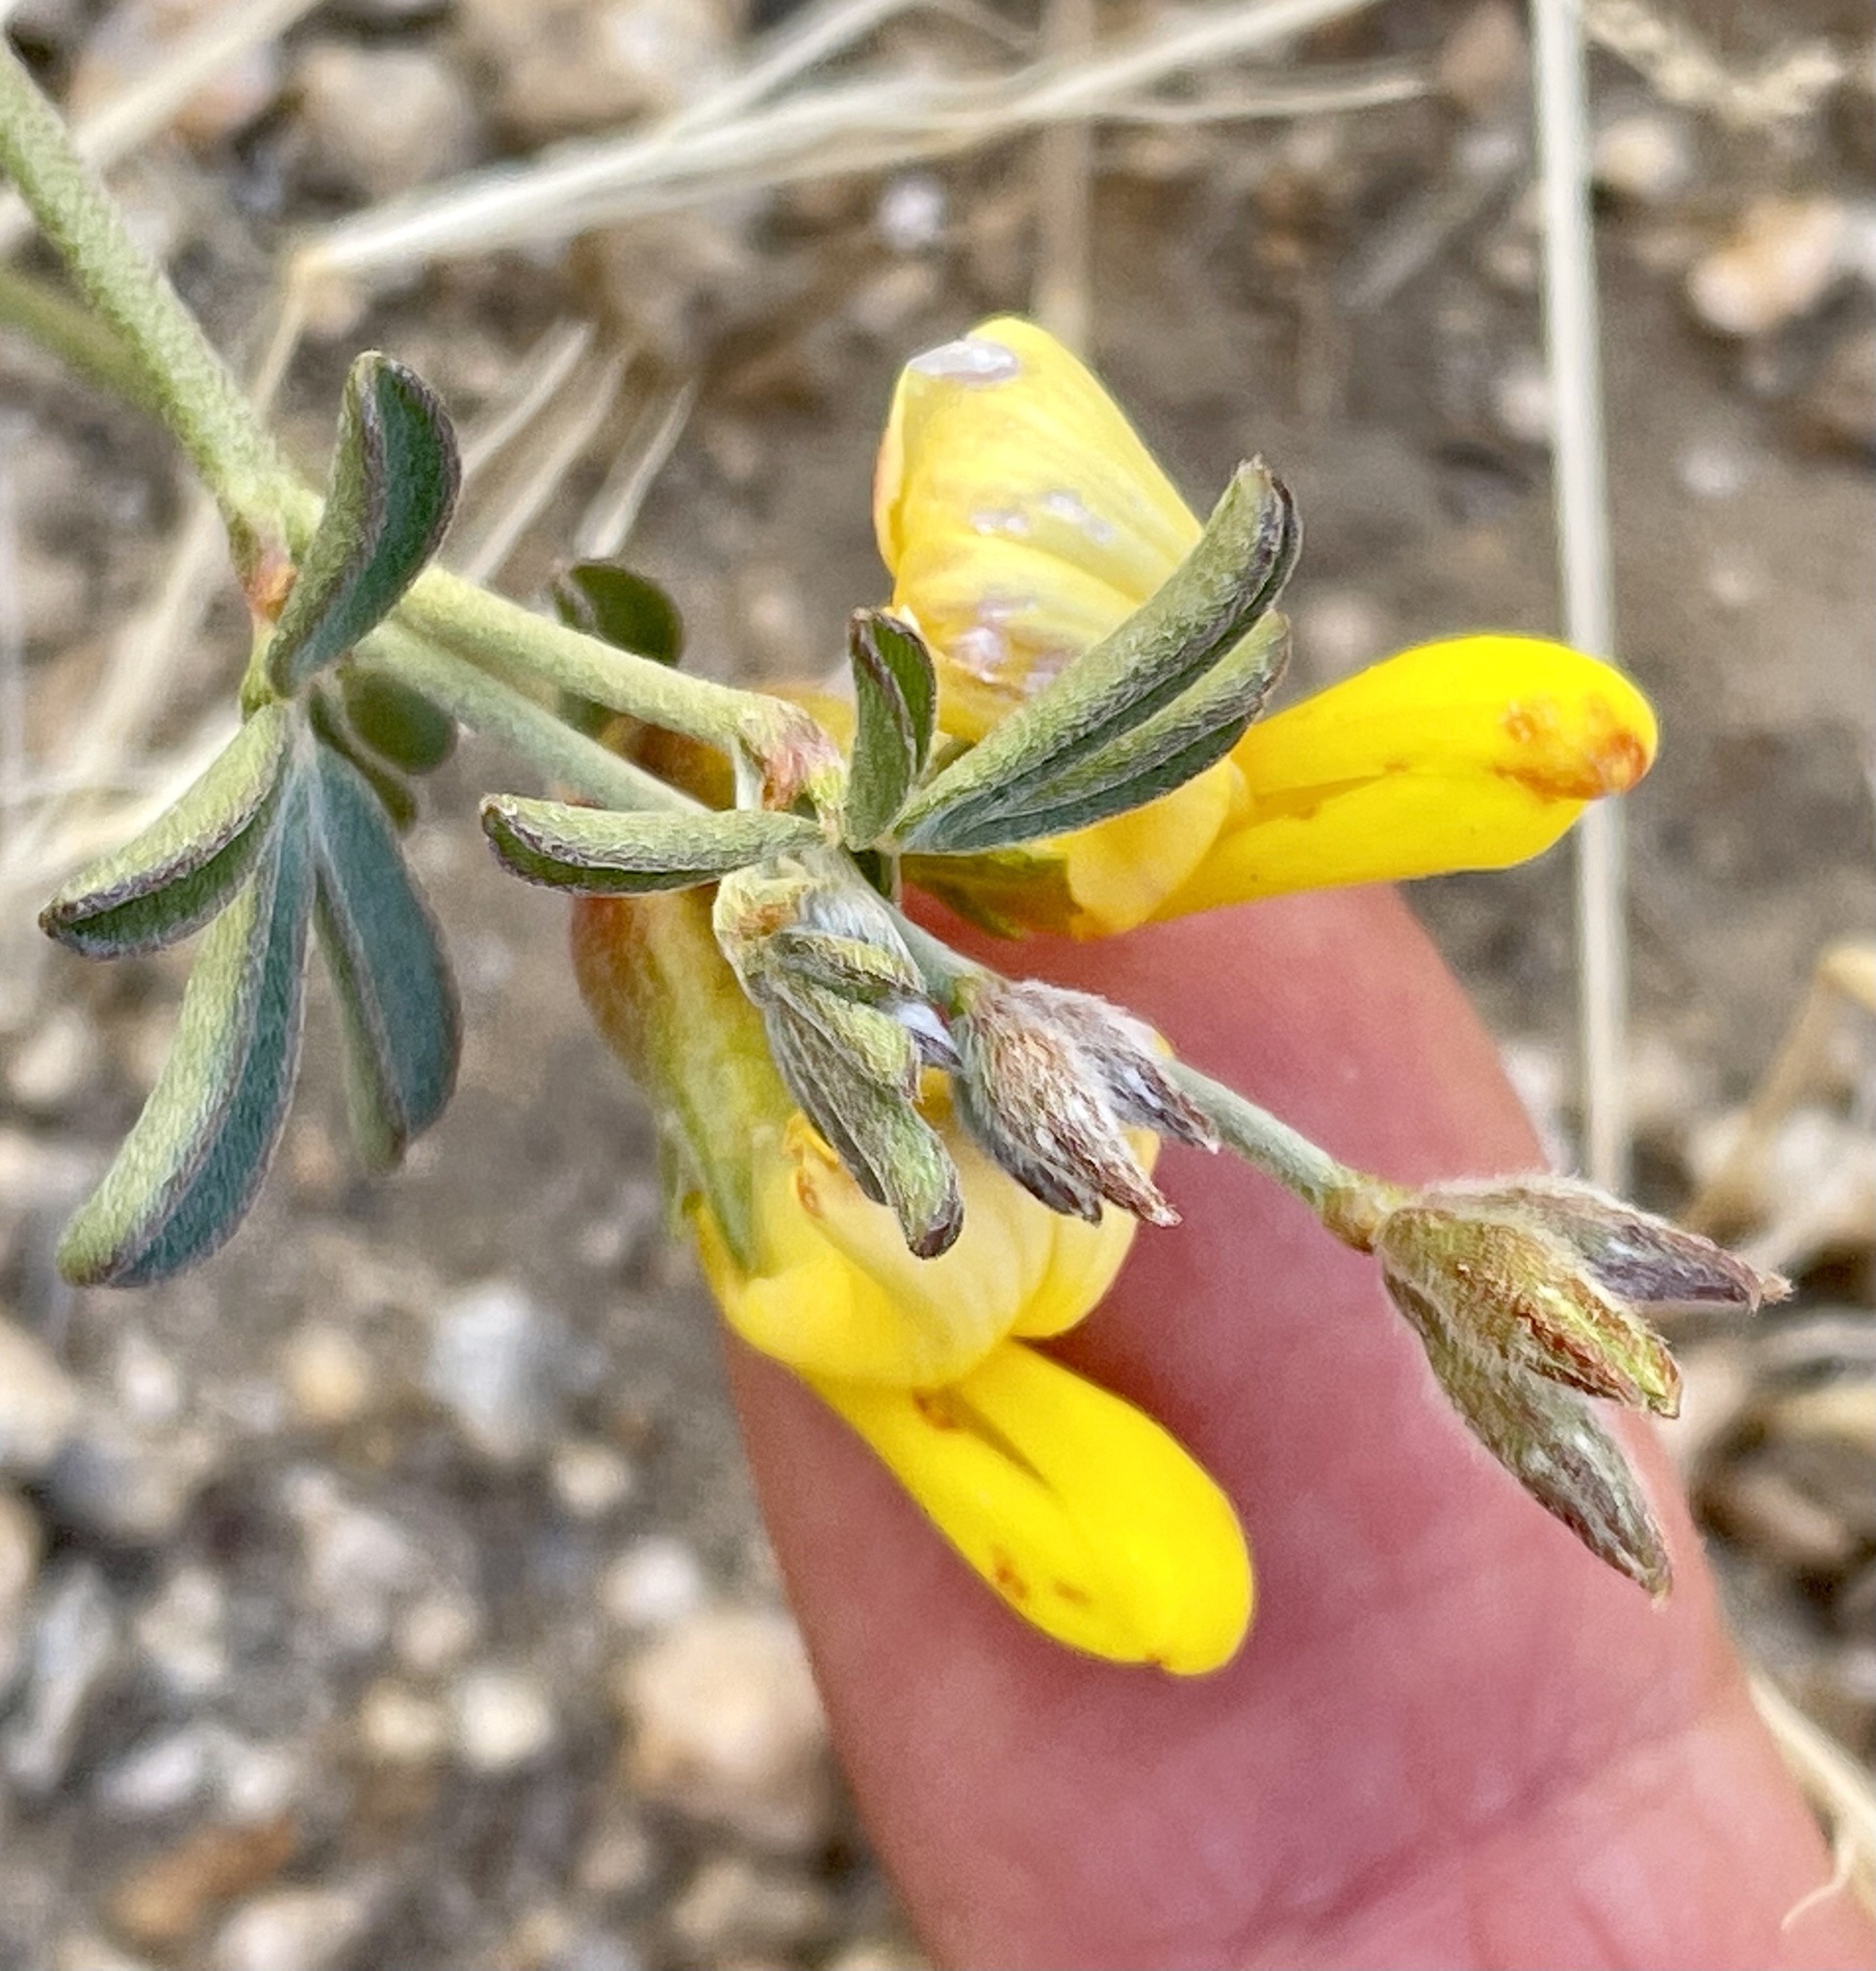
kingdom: Plantae
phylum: Tracheophyta
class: Magnoliopsida
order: Fabales
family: Fabaceae
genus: Acmispon
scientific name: Acmispon rigidus
